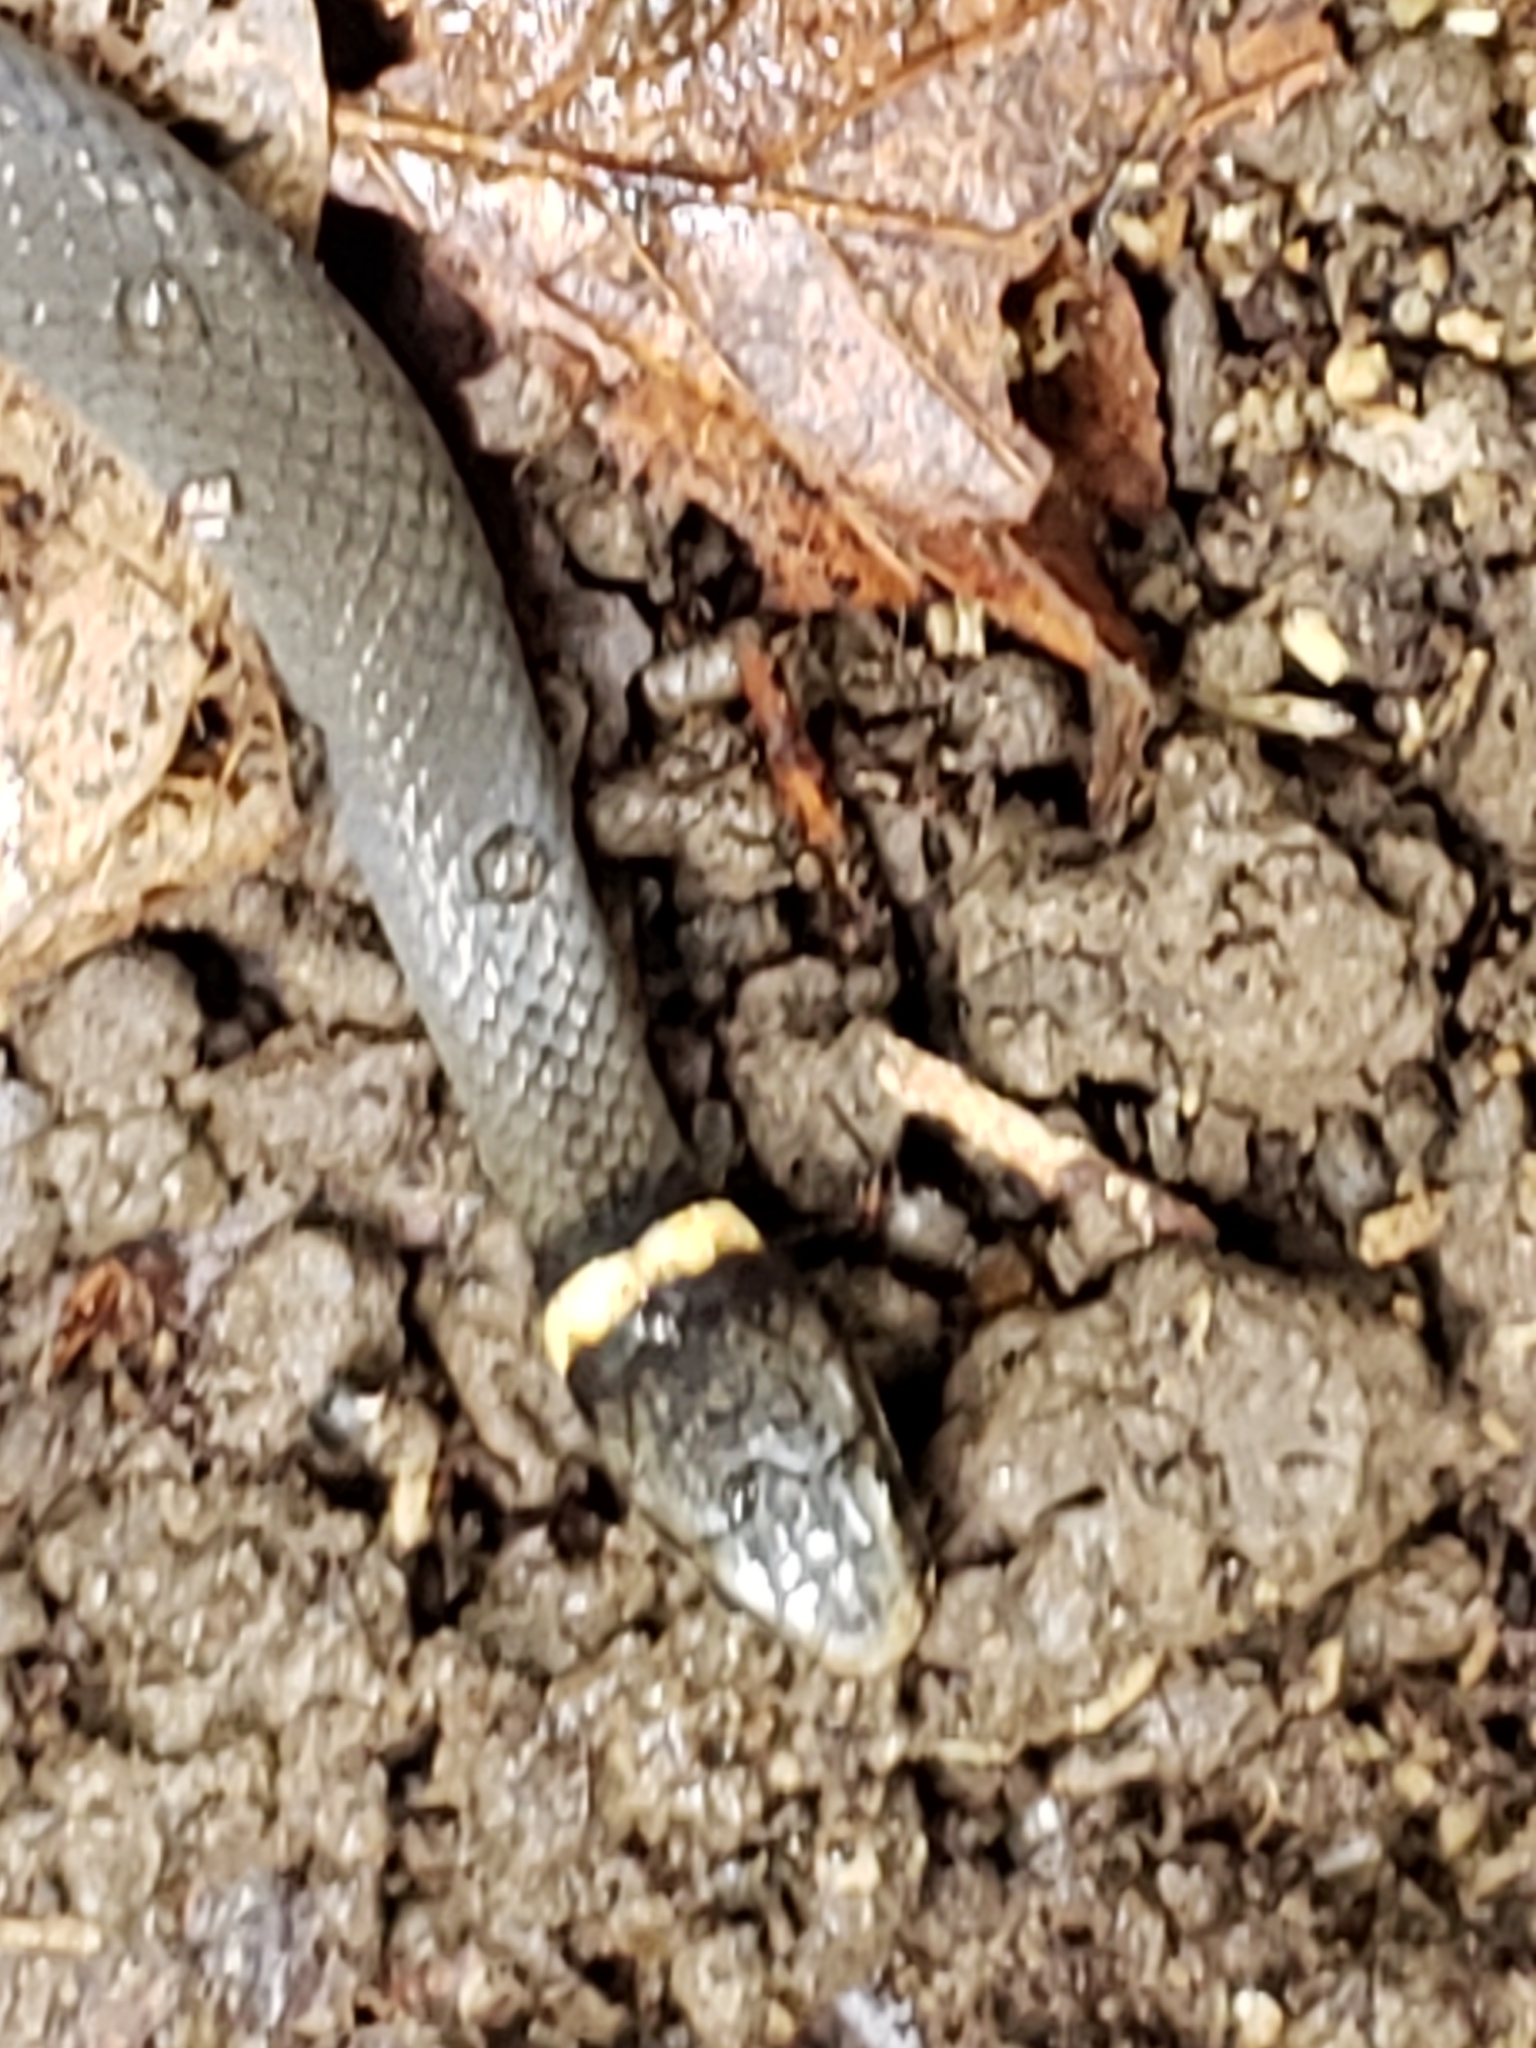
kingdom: Animalia
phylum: Chordata
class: Squamata
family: Colubridae
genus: Diadophis
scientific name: Diadophis punctatus
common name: Ringneck snake
